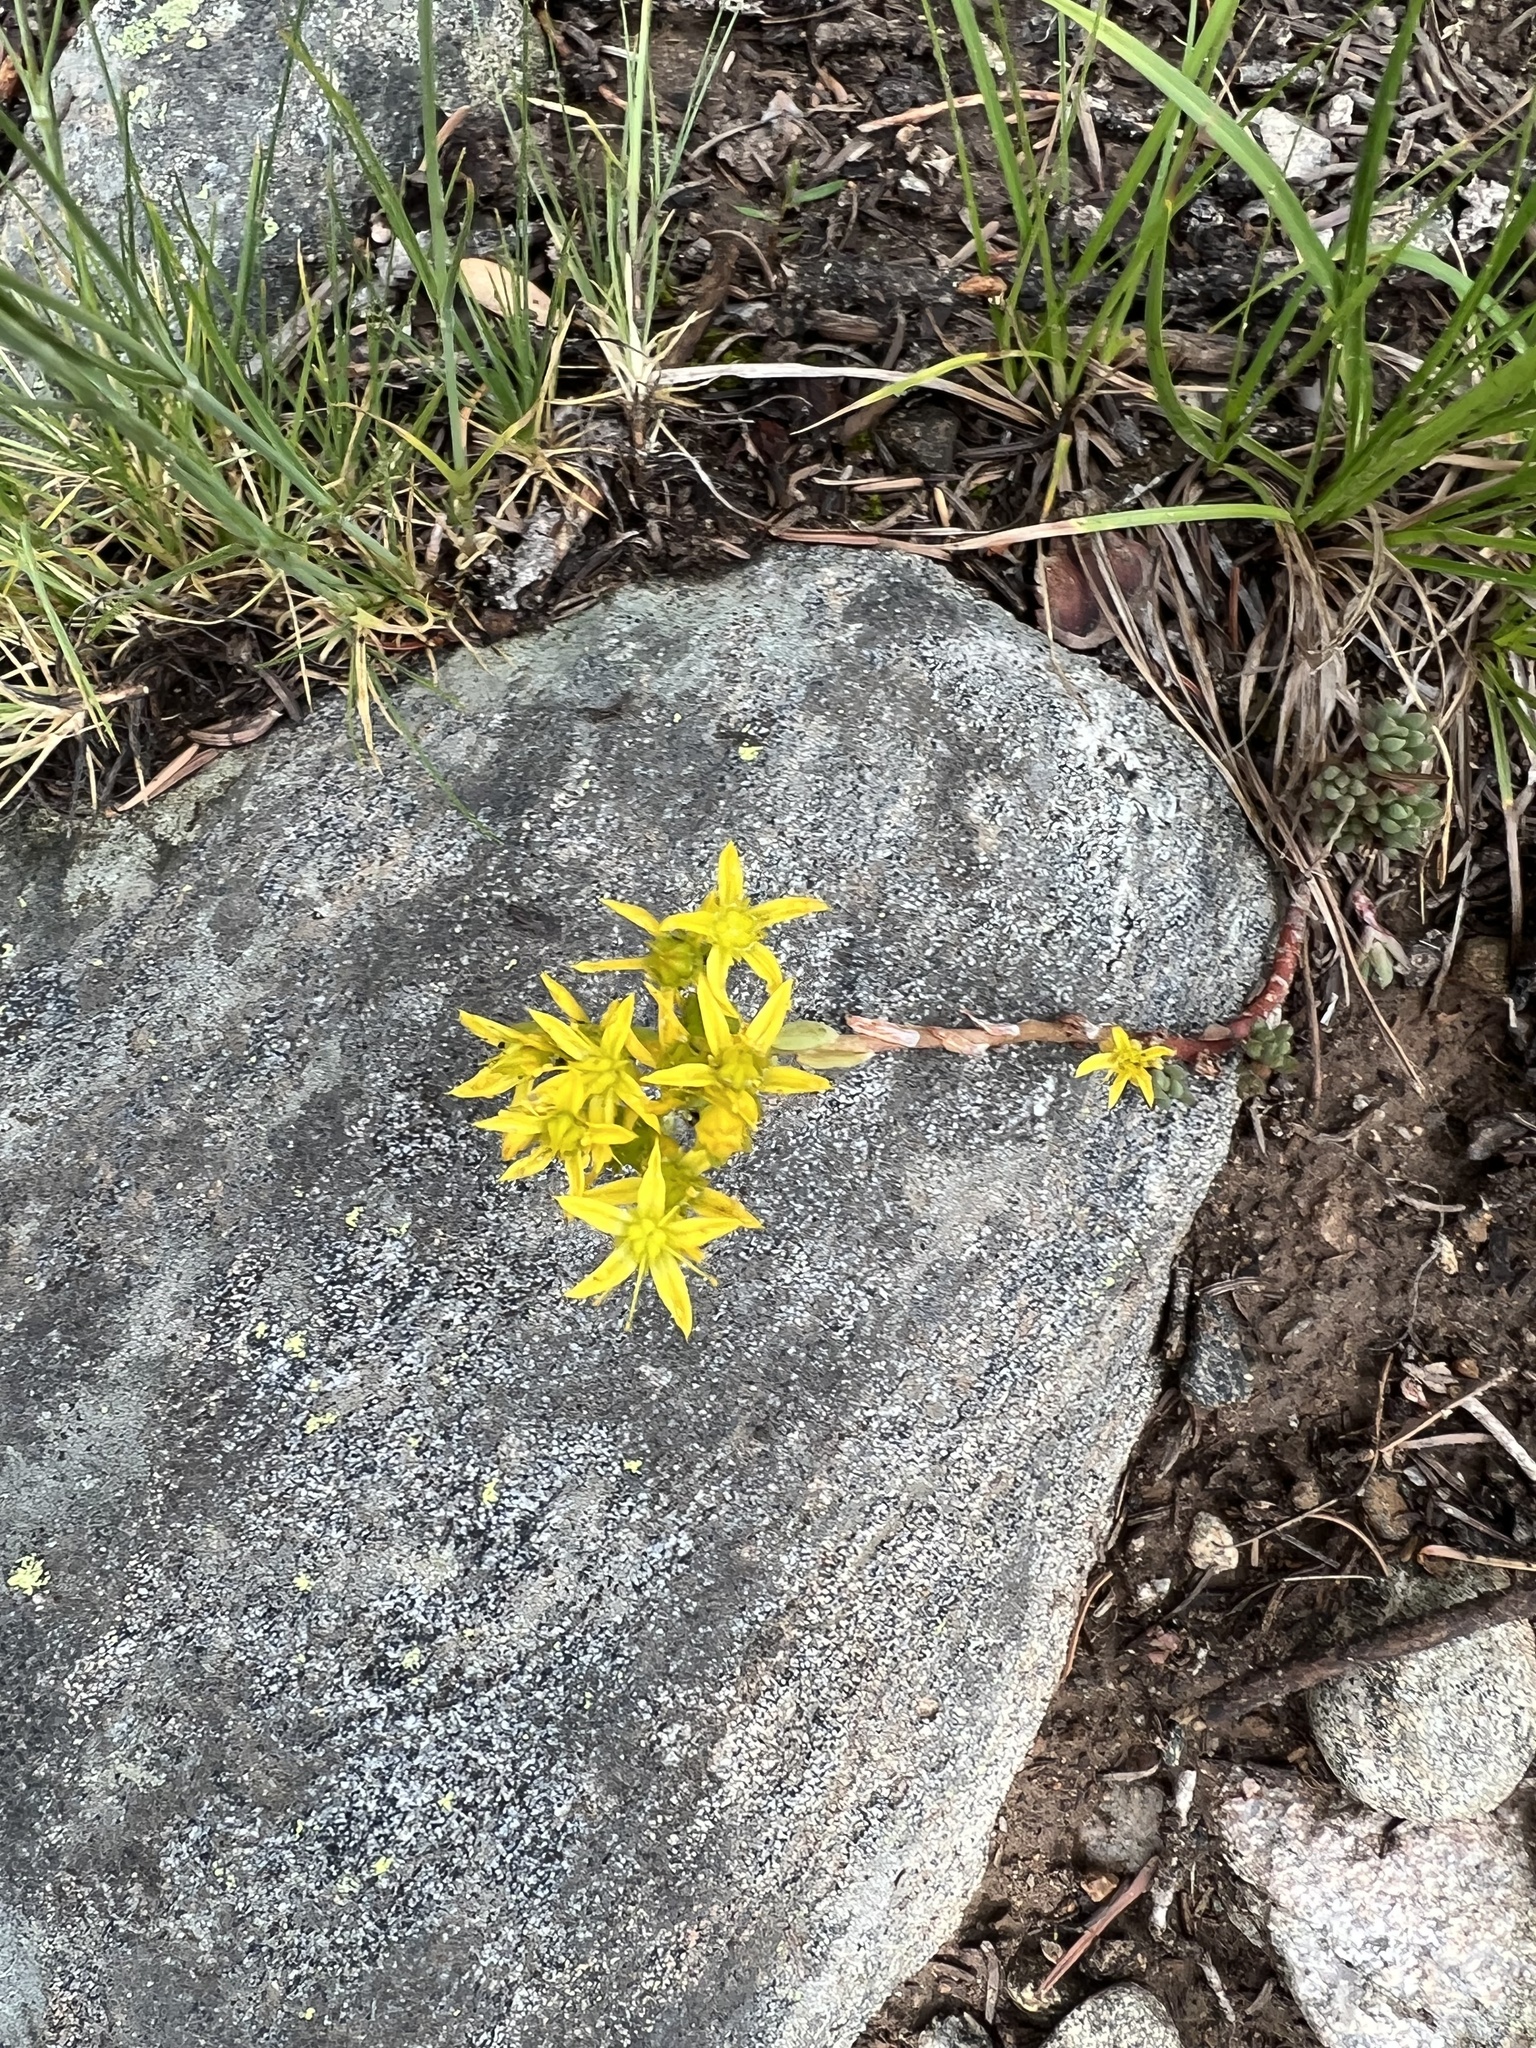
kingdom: Plantae
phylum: Tracheophyta
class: Magnoliopsida
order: Saxifragales
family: Crassulaceae
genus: Sedum
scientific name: Sedum lanceolatum
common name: Common stonecrop
